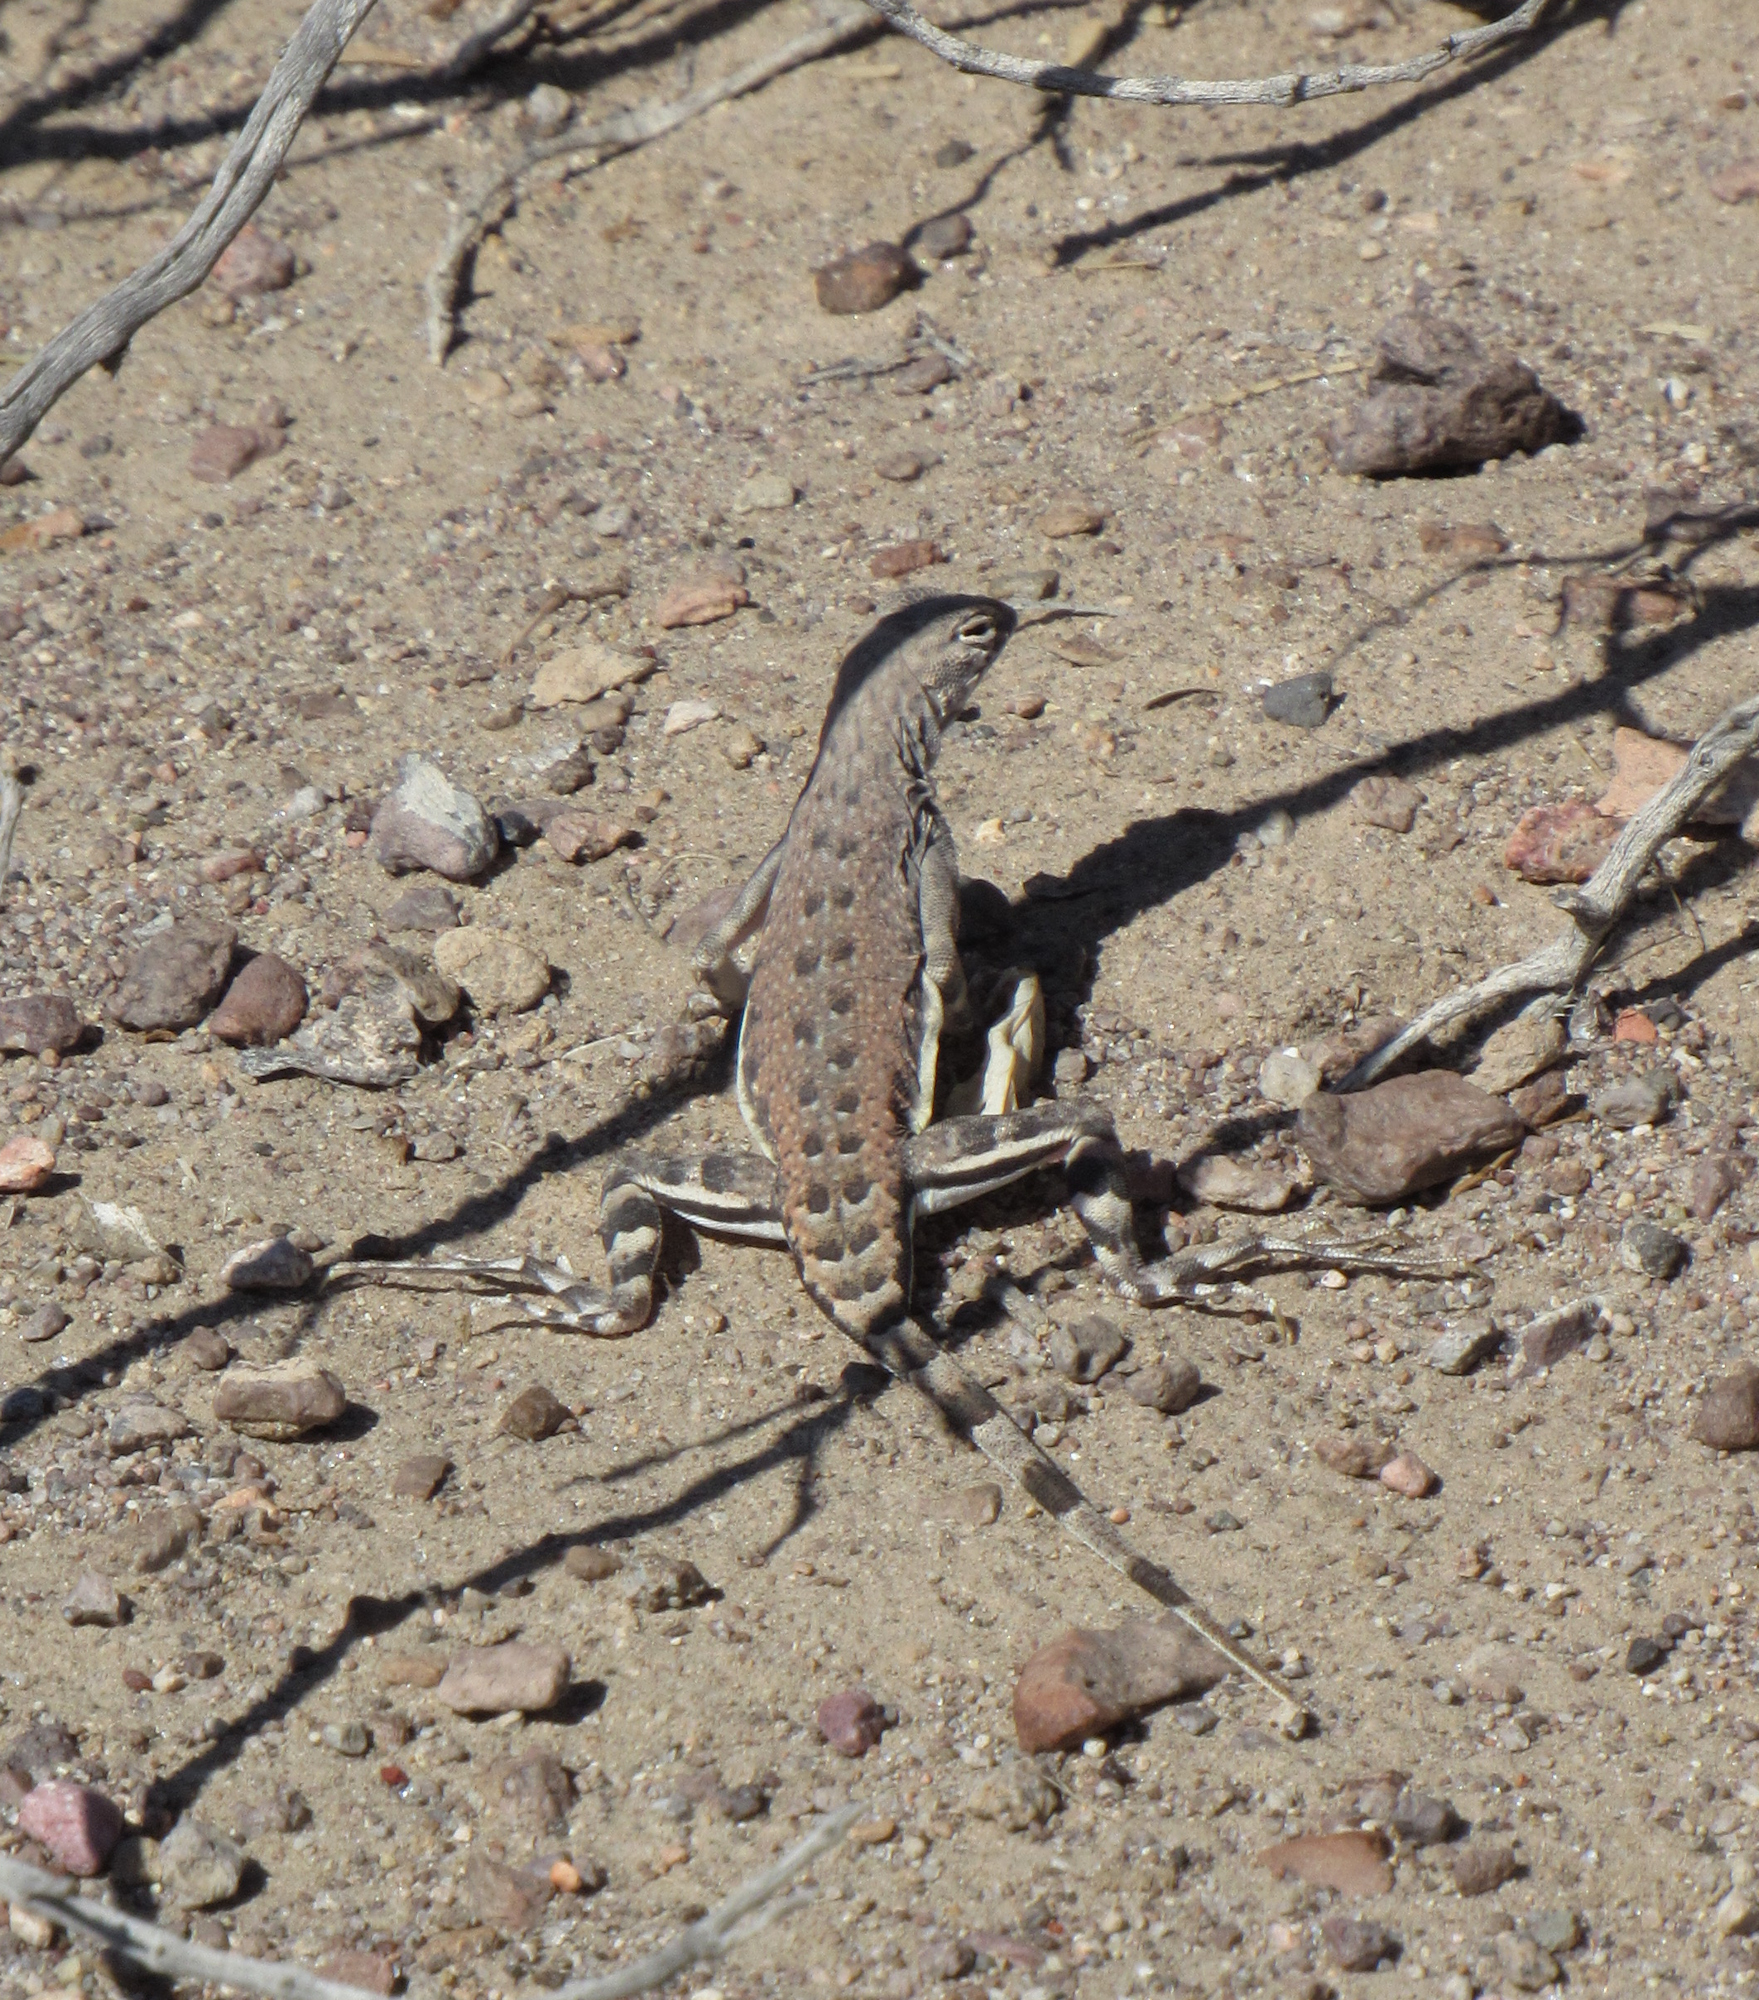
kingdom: Animalia
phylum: Chordata
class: Squamata
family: Phrynosomatidae
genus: Callisaurus
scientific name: Callisaurus draconoides
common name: Zebra-tailed lizard
